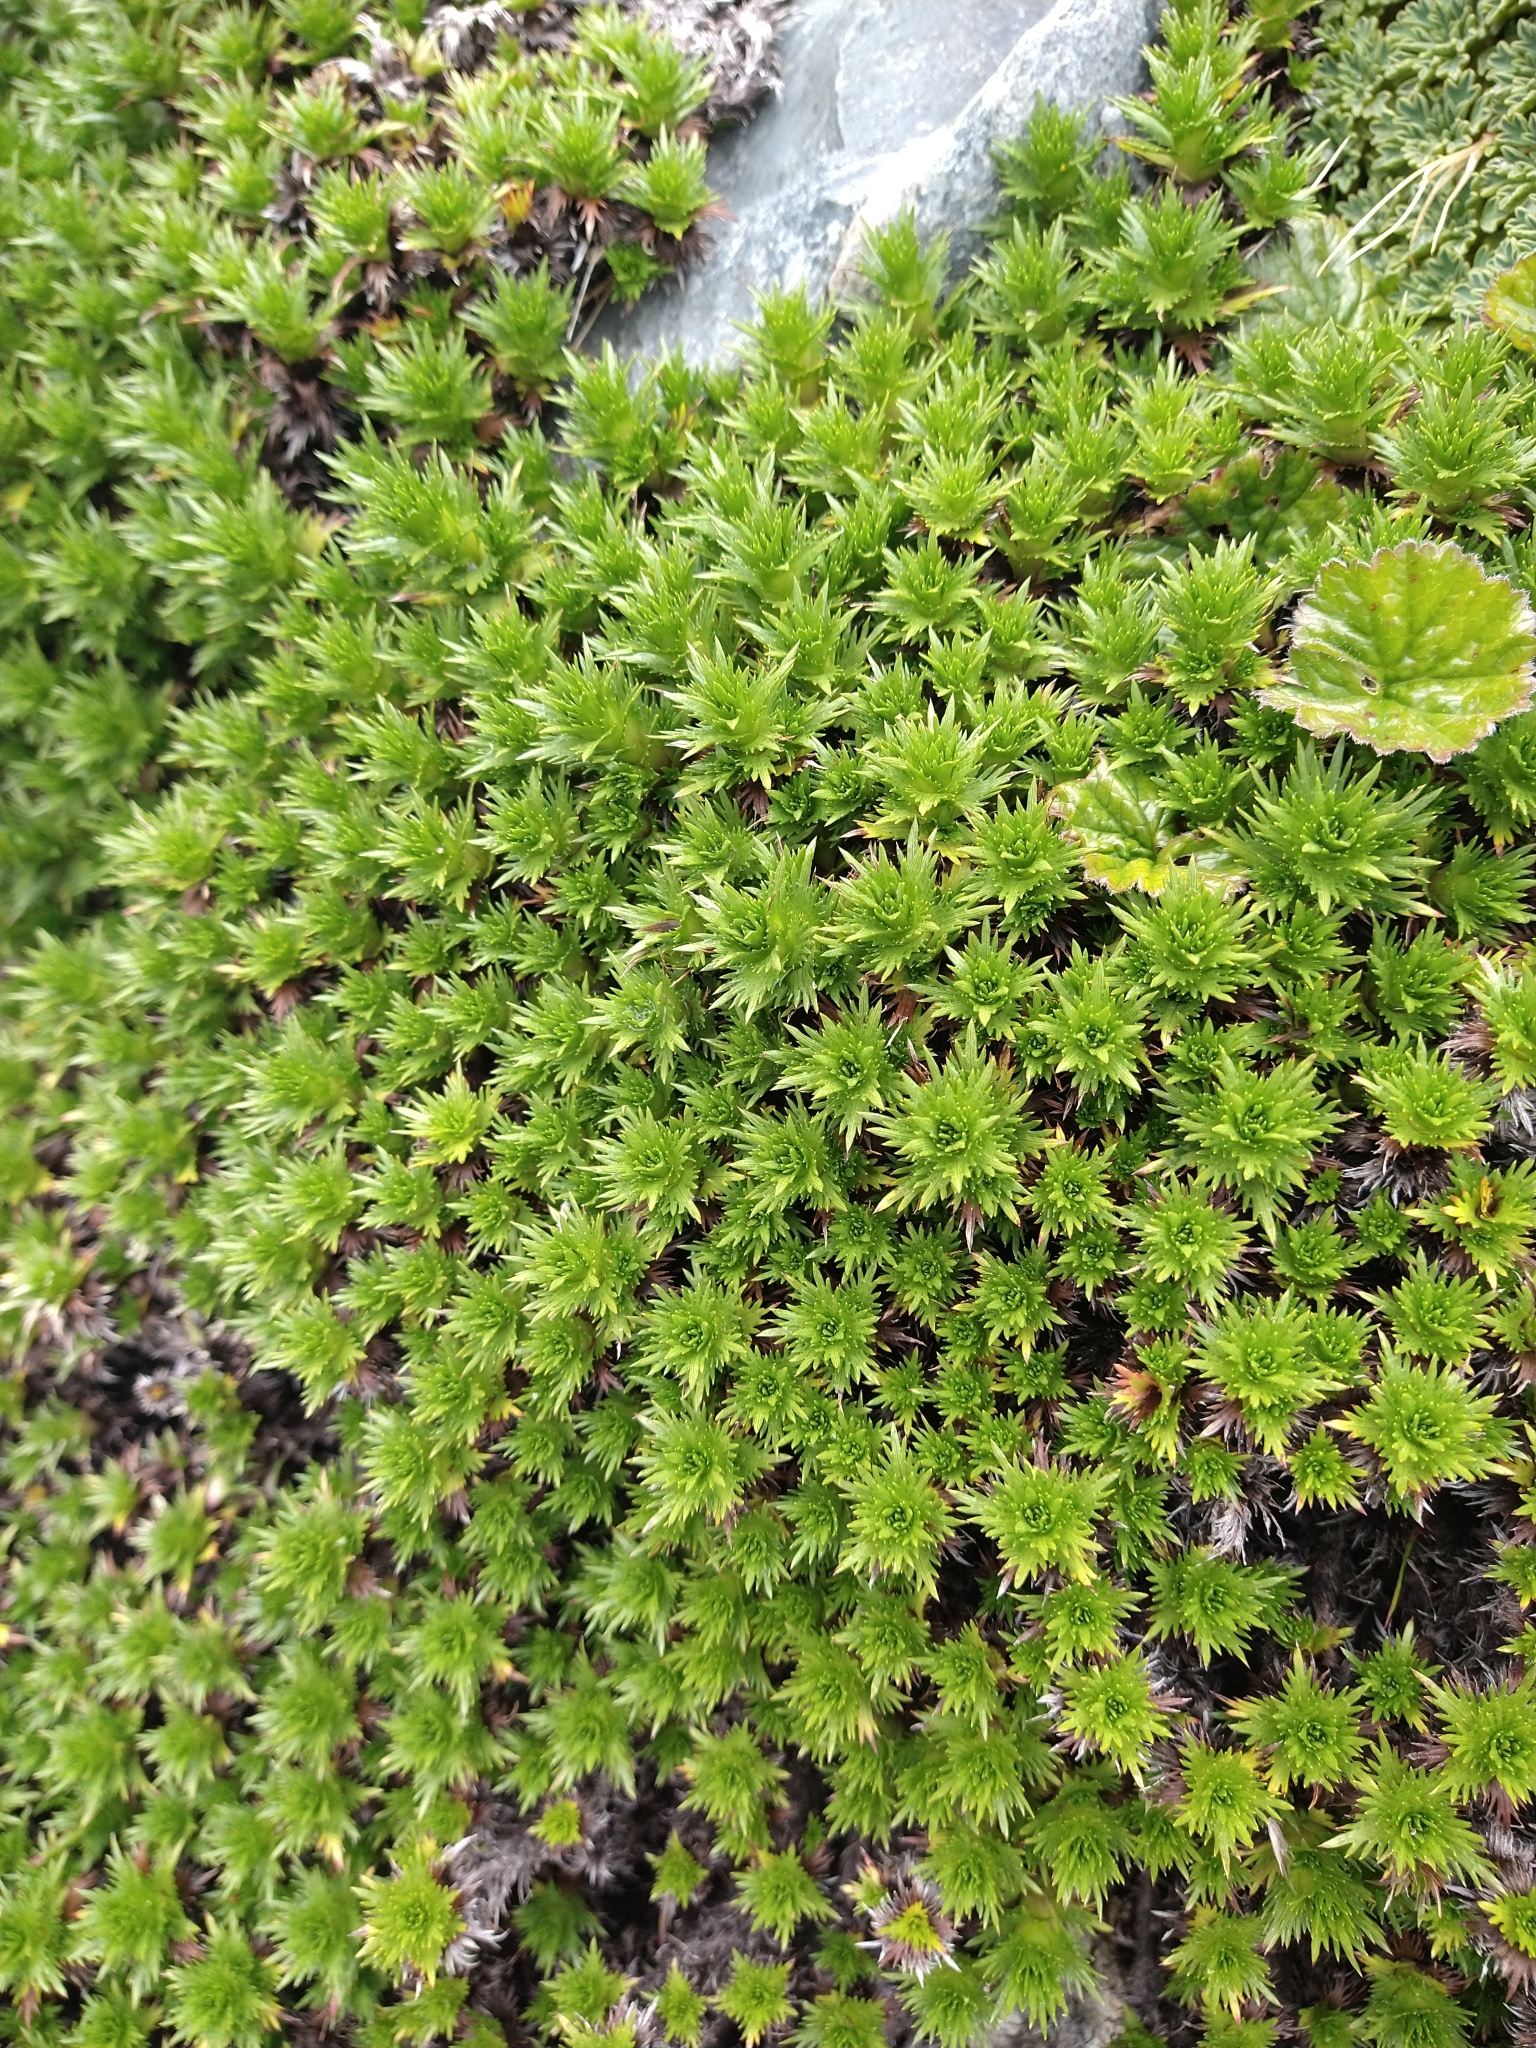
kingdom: Plantae
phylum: Tracheophyta
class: Magnoliopsida
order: Asterales
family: Asteraceae
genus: Nassauvia
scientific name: Nassauvia magellanica
